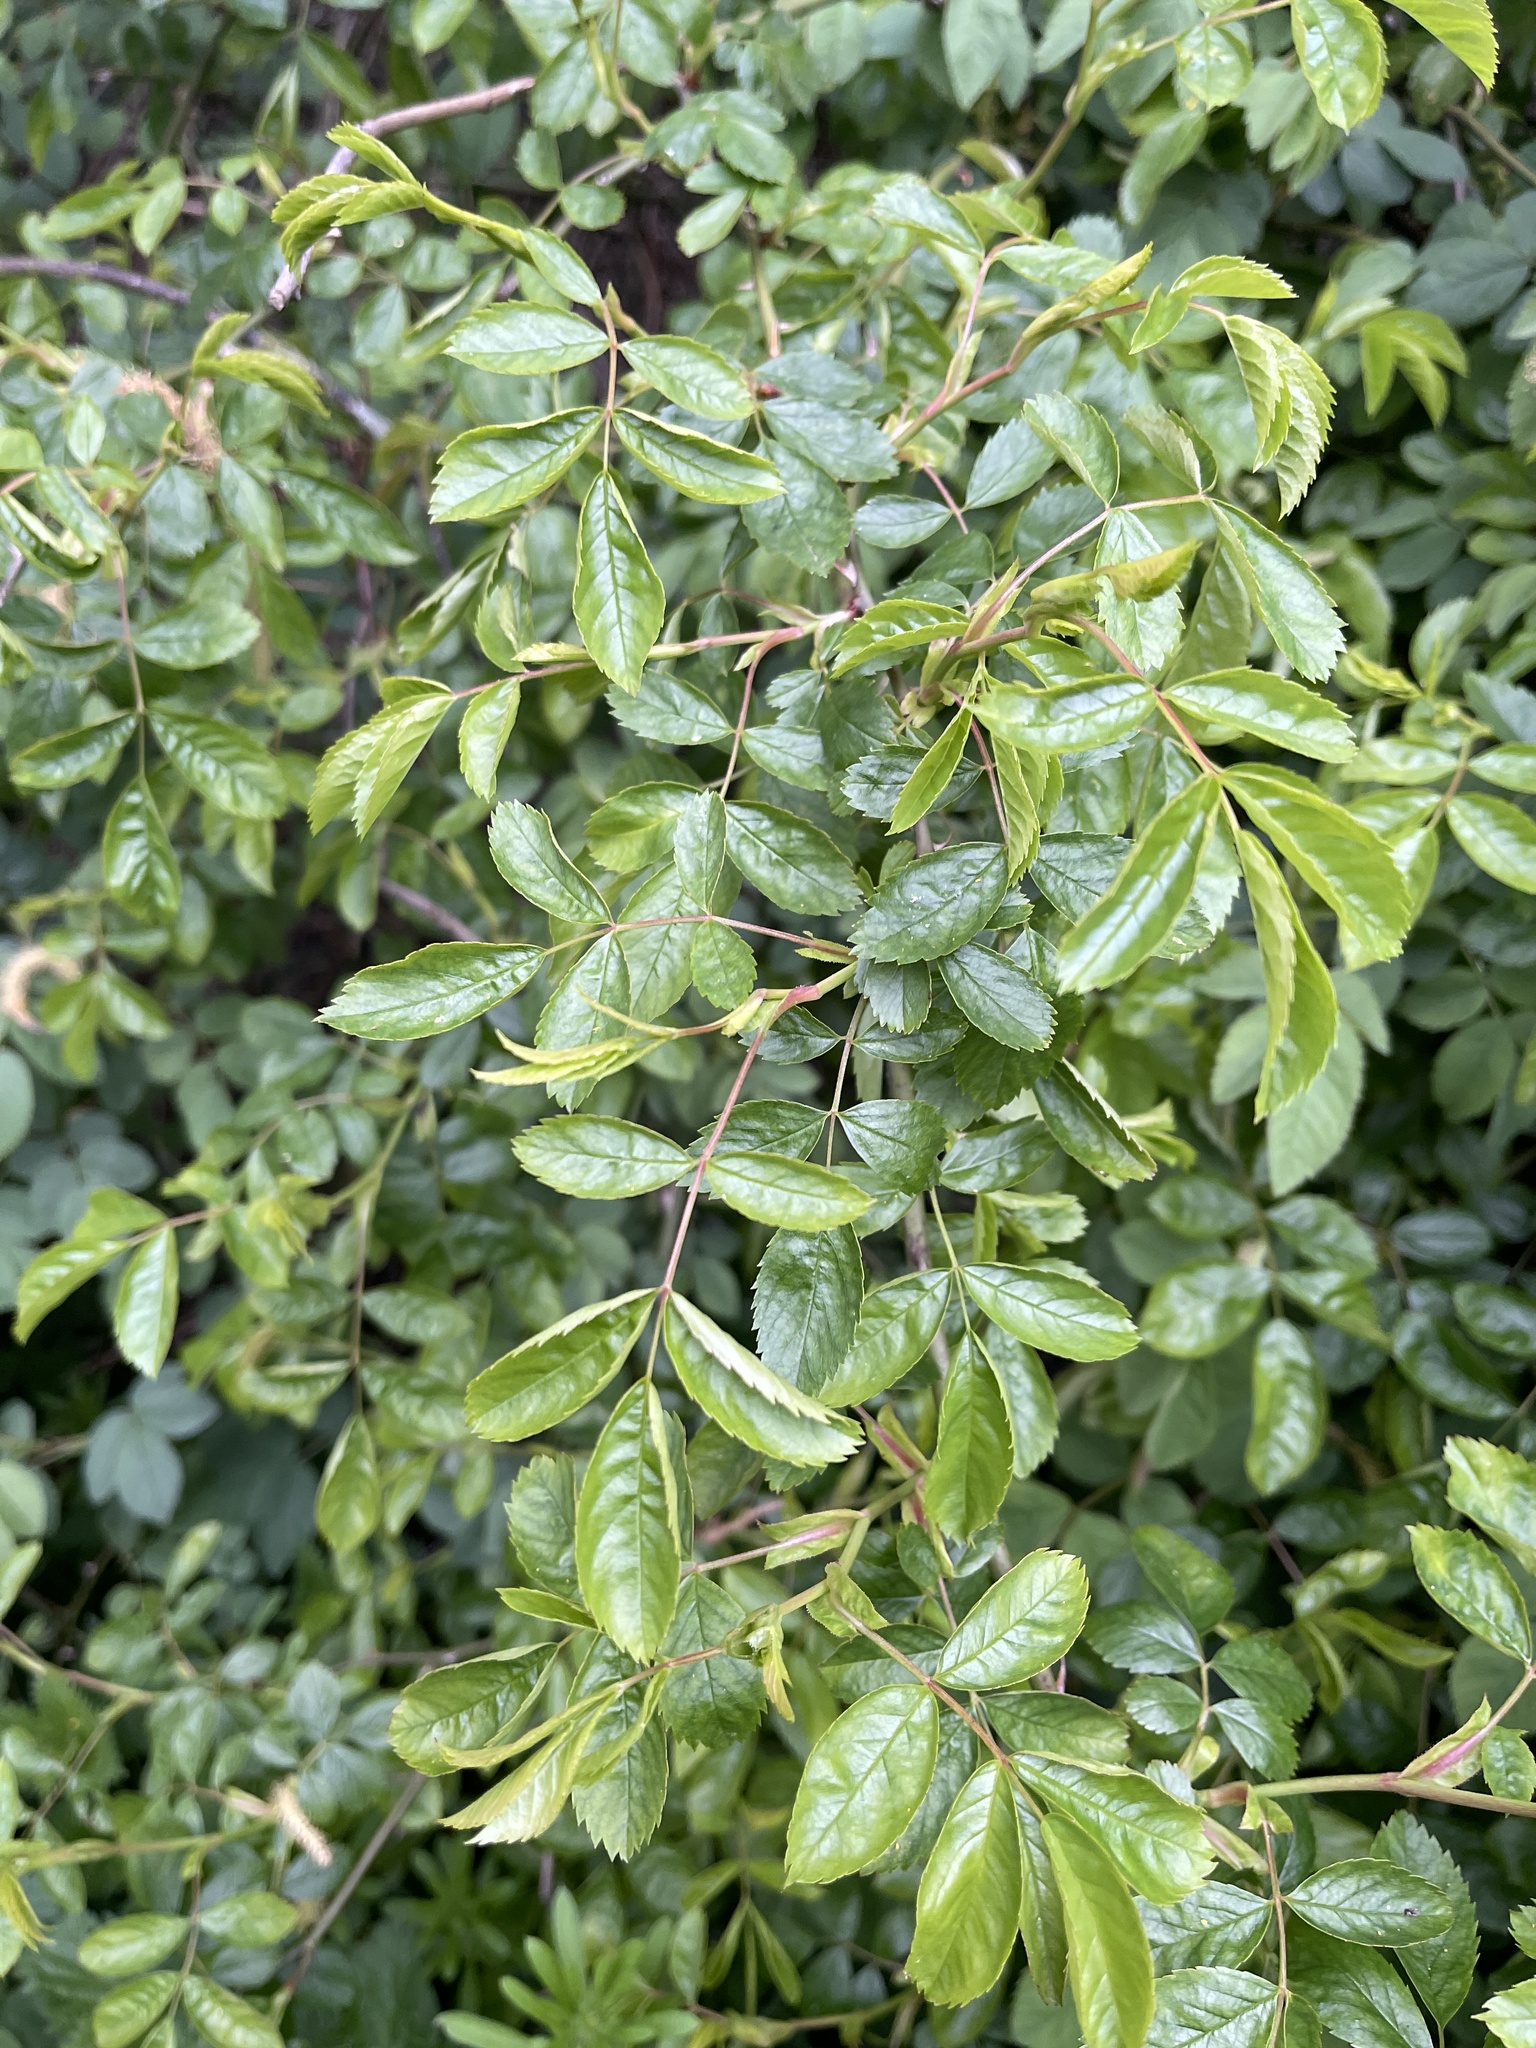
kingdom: Plantae
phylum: Tracheophyta
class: Magnoliopsida
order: Rosales
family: Rosaceae
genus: Rosa
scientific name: Rosa canina
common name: Dog rose
